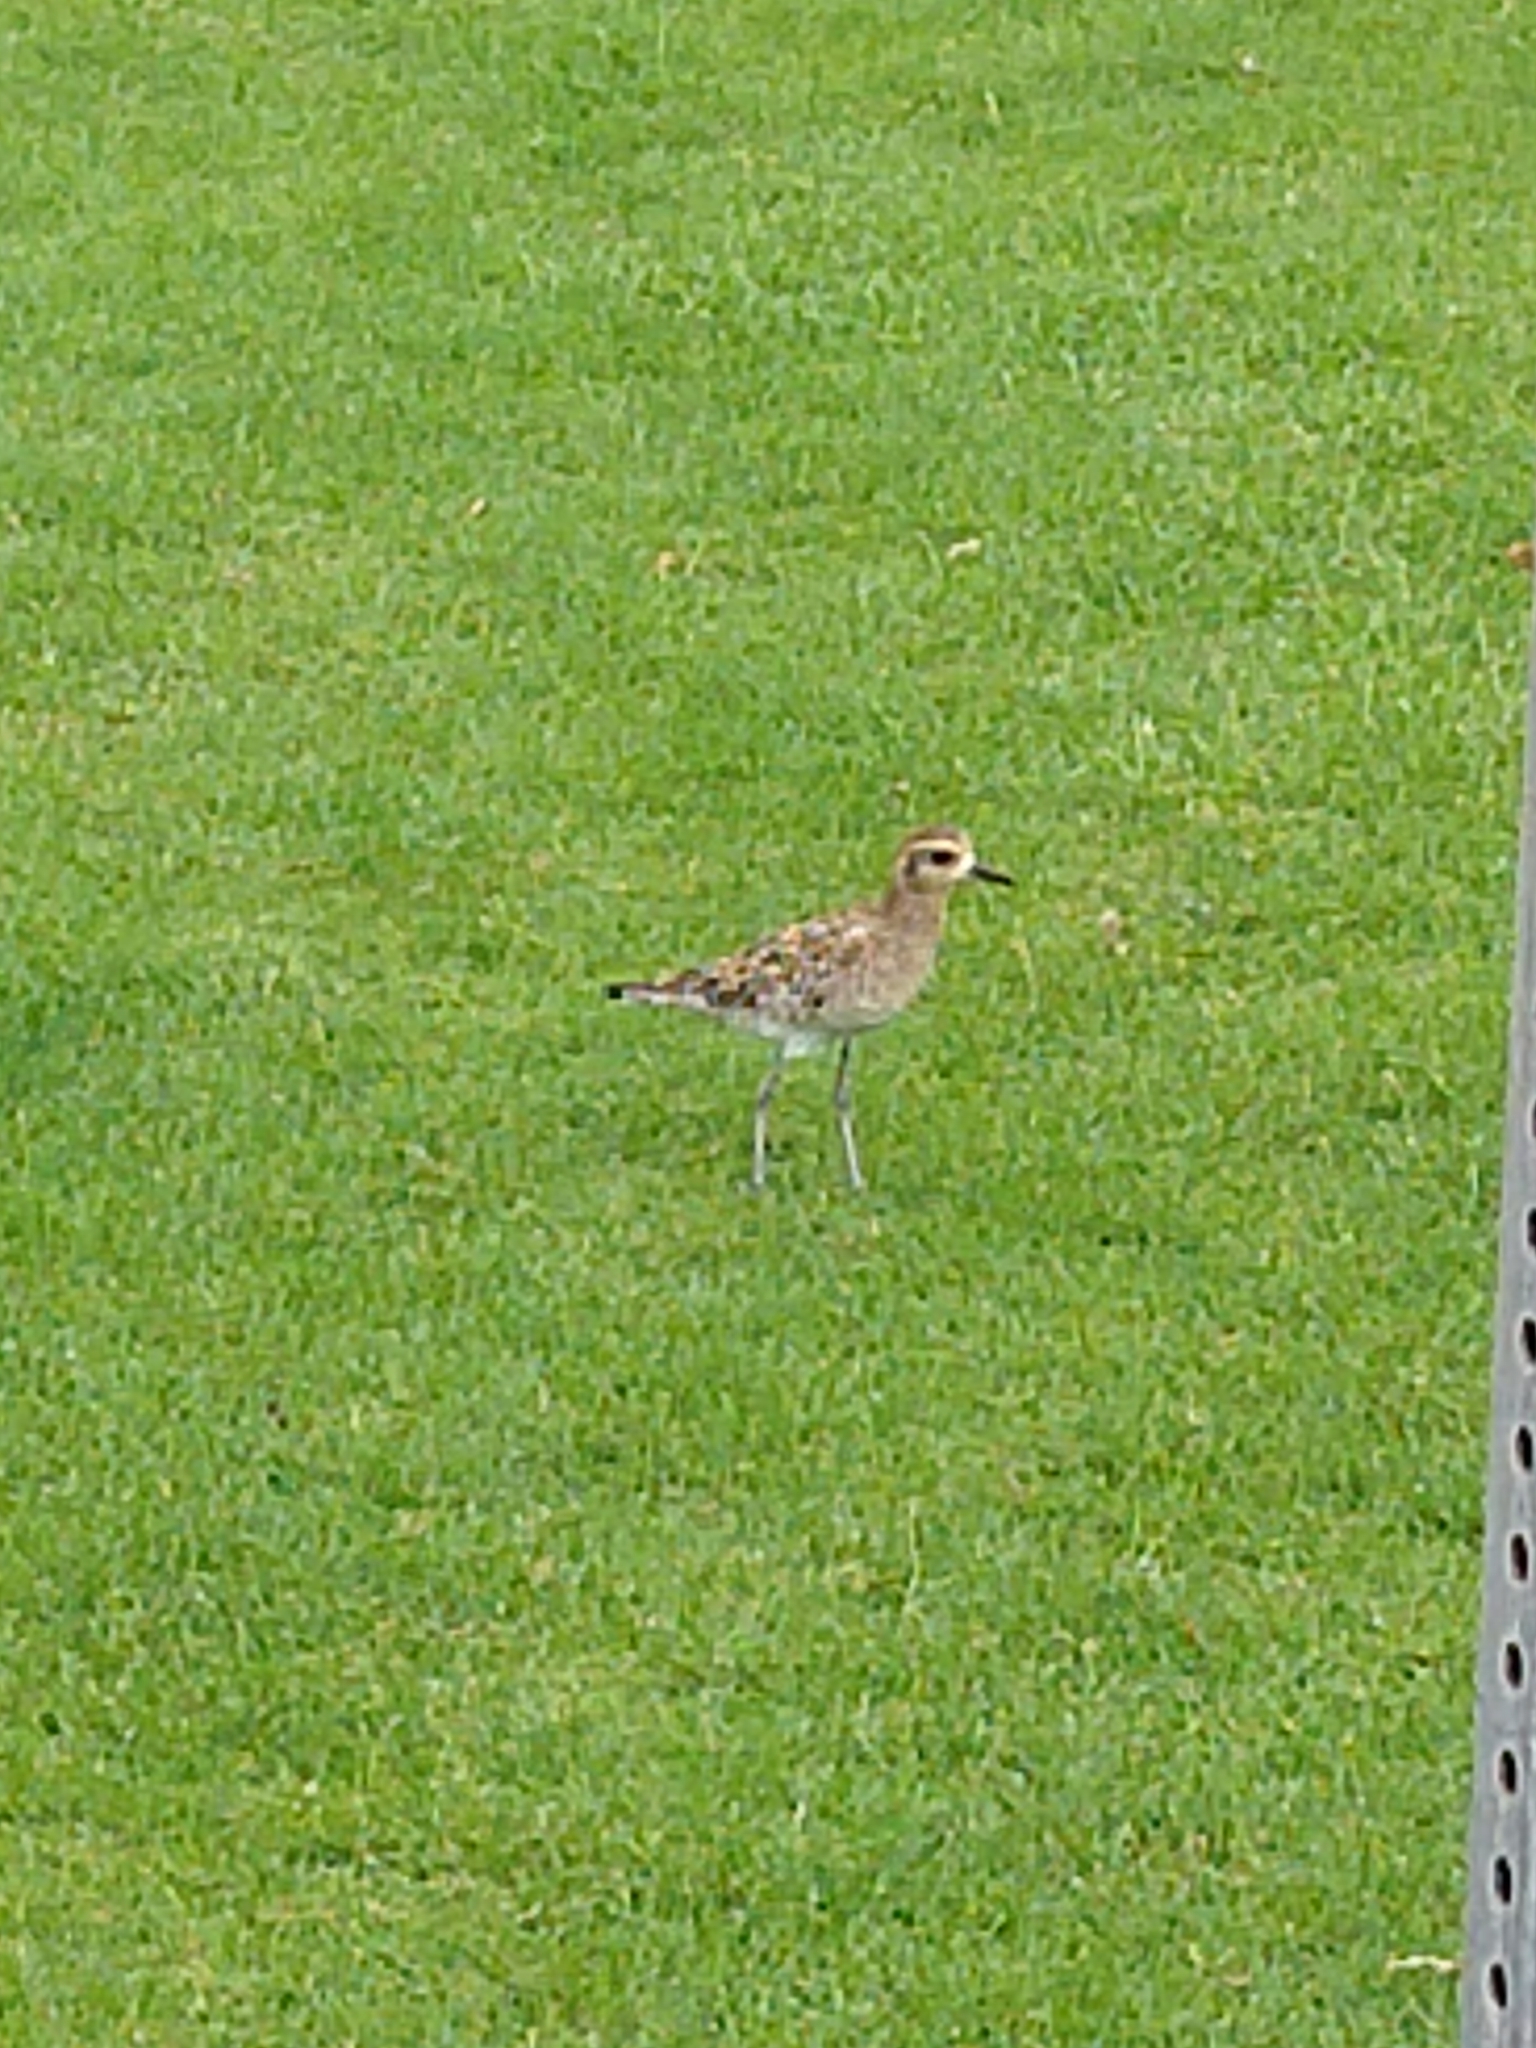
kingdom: Animalia
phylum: Chordata
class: Aves
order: Charadriiformes
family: Charadriidae
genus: Pluvialis
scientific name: Pluvialis fulva
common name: Pacific golden plover
